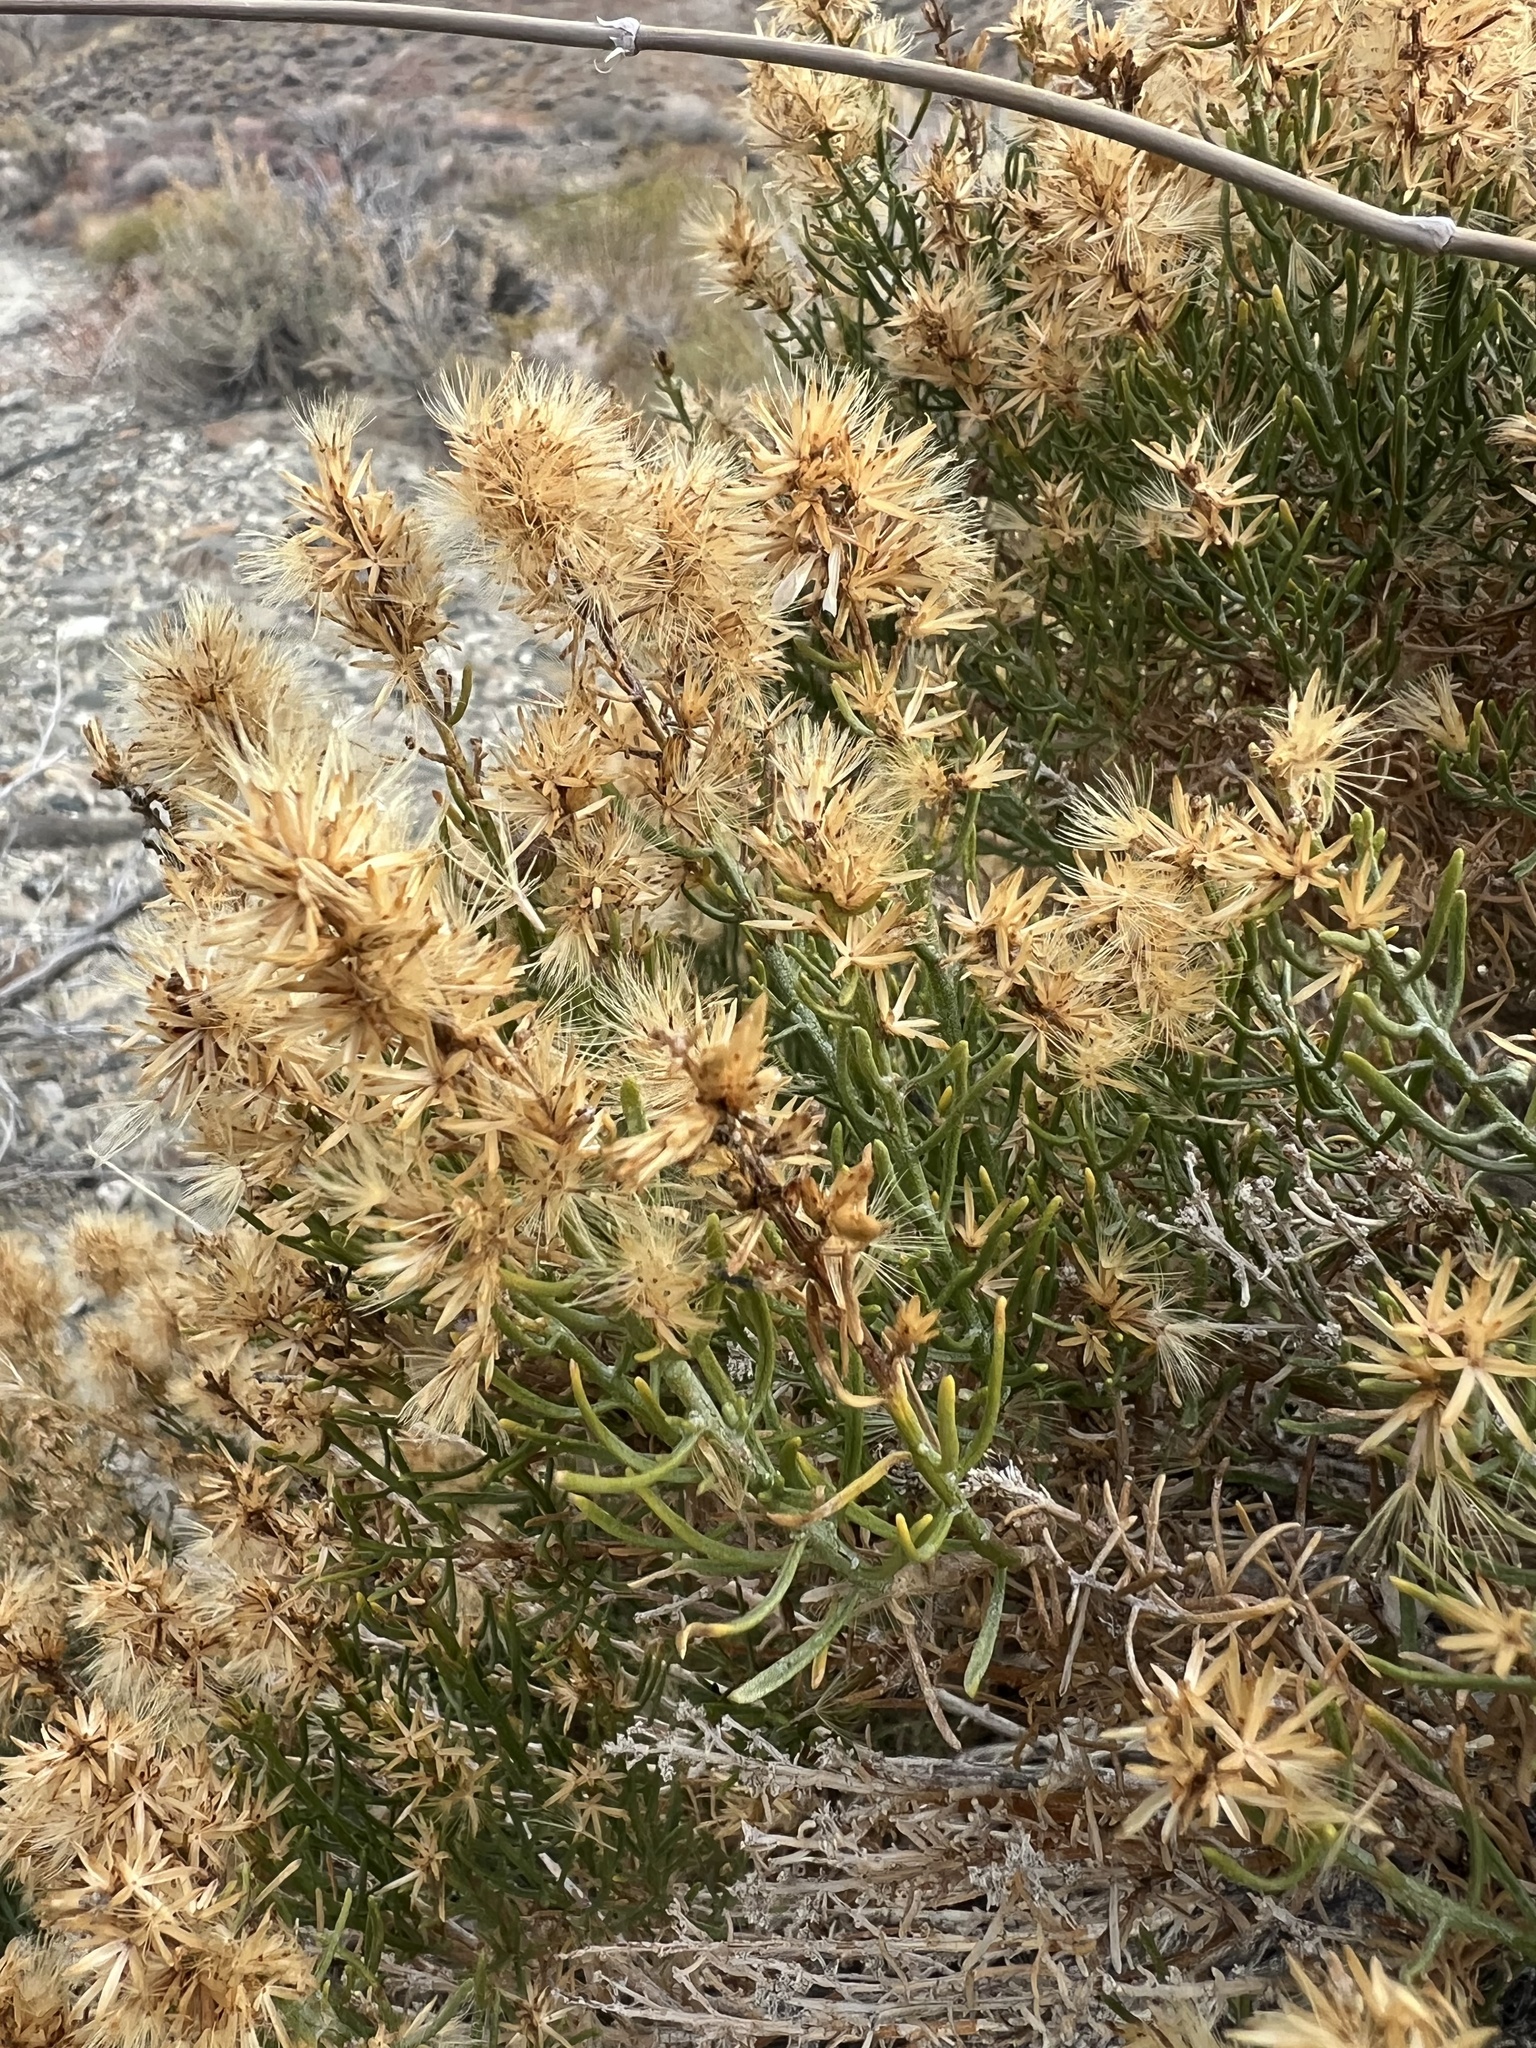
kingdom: Plantae
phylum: Tracheophyta
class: Magnoliopsida
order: Asterales
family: Asteraceae
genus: Ericameria
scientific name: Ericameria teretifolia
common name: Round-leaf rabbitbrush
